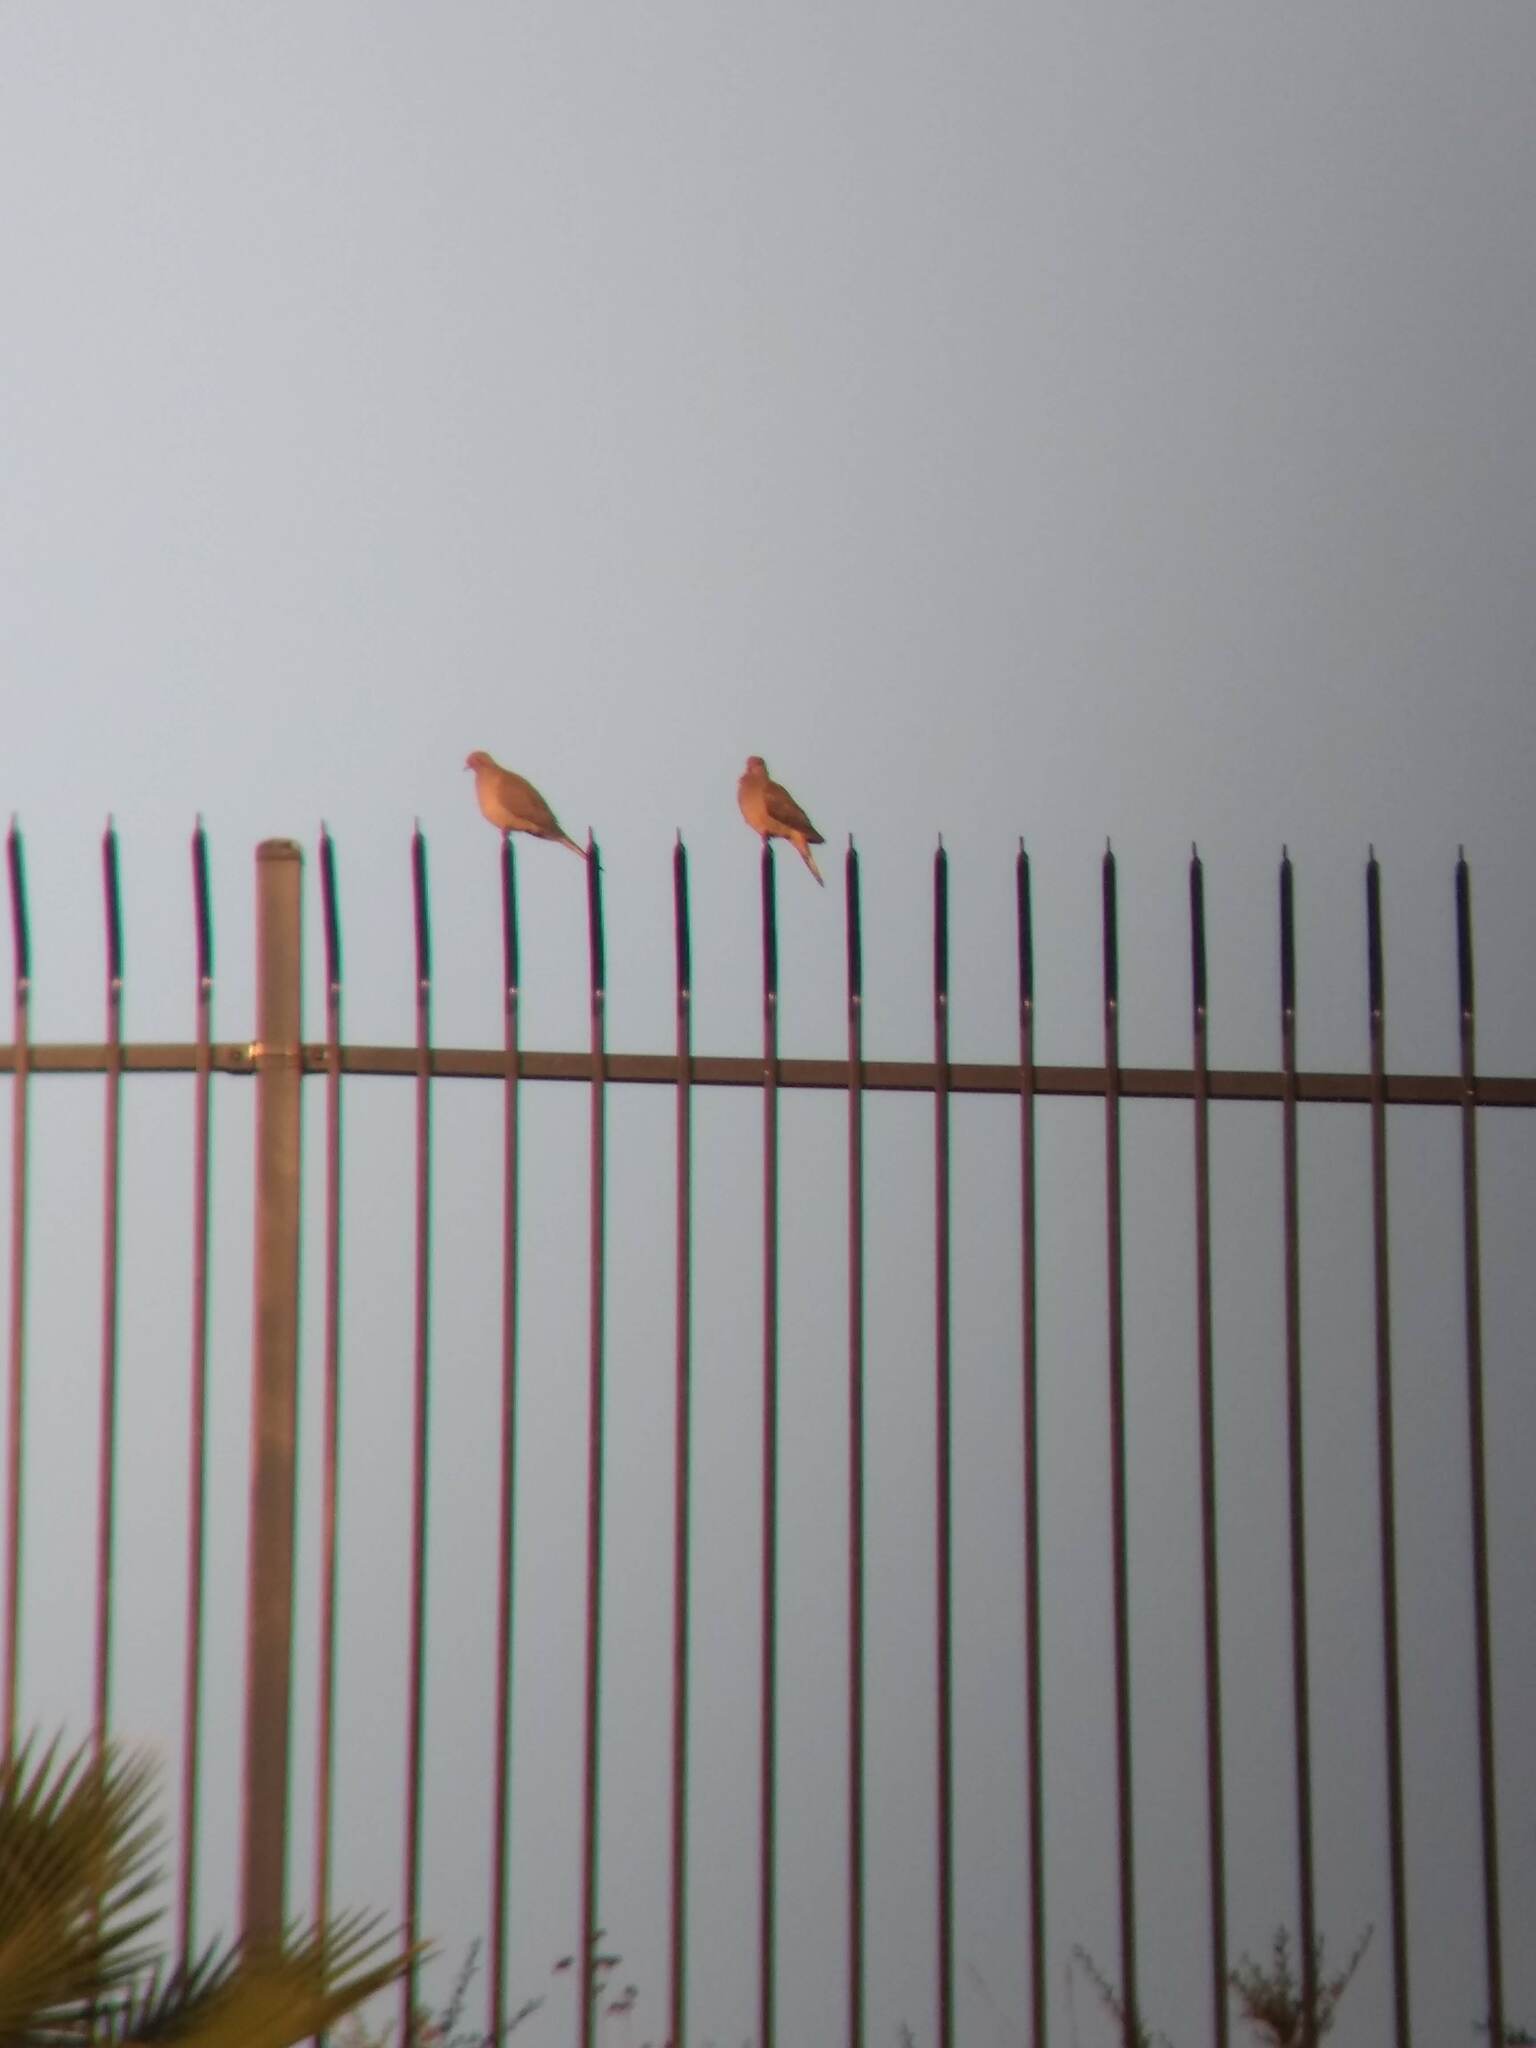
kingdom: Animalia
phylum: Chordata
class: Aves
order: Columbiformes
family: Columbidae
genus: Zenaida
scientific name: Zenaida macroura
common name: Mourning dove
